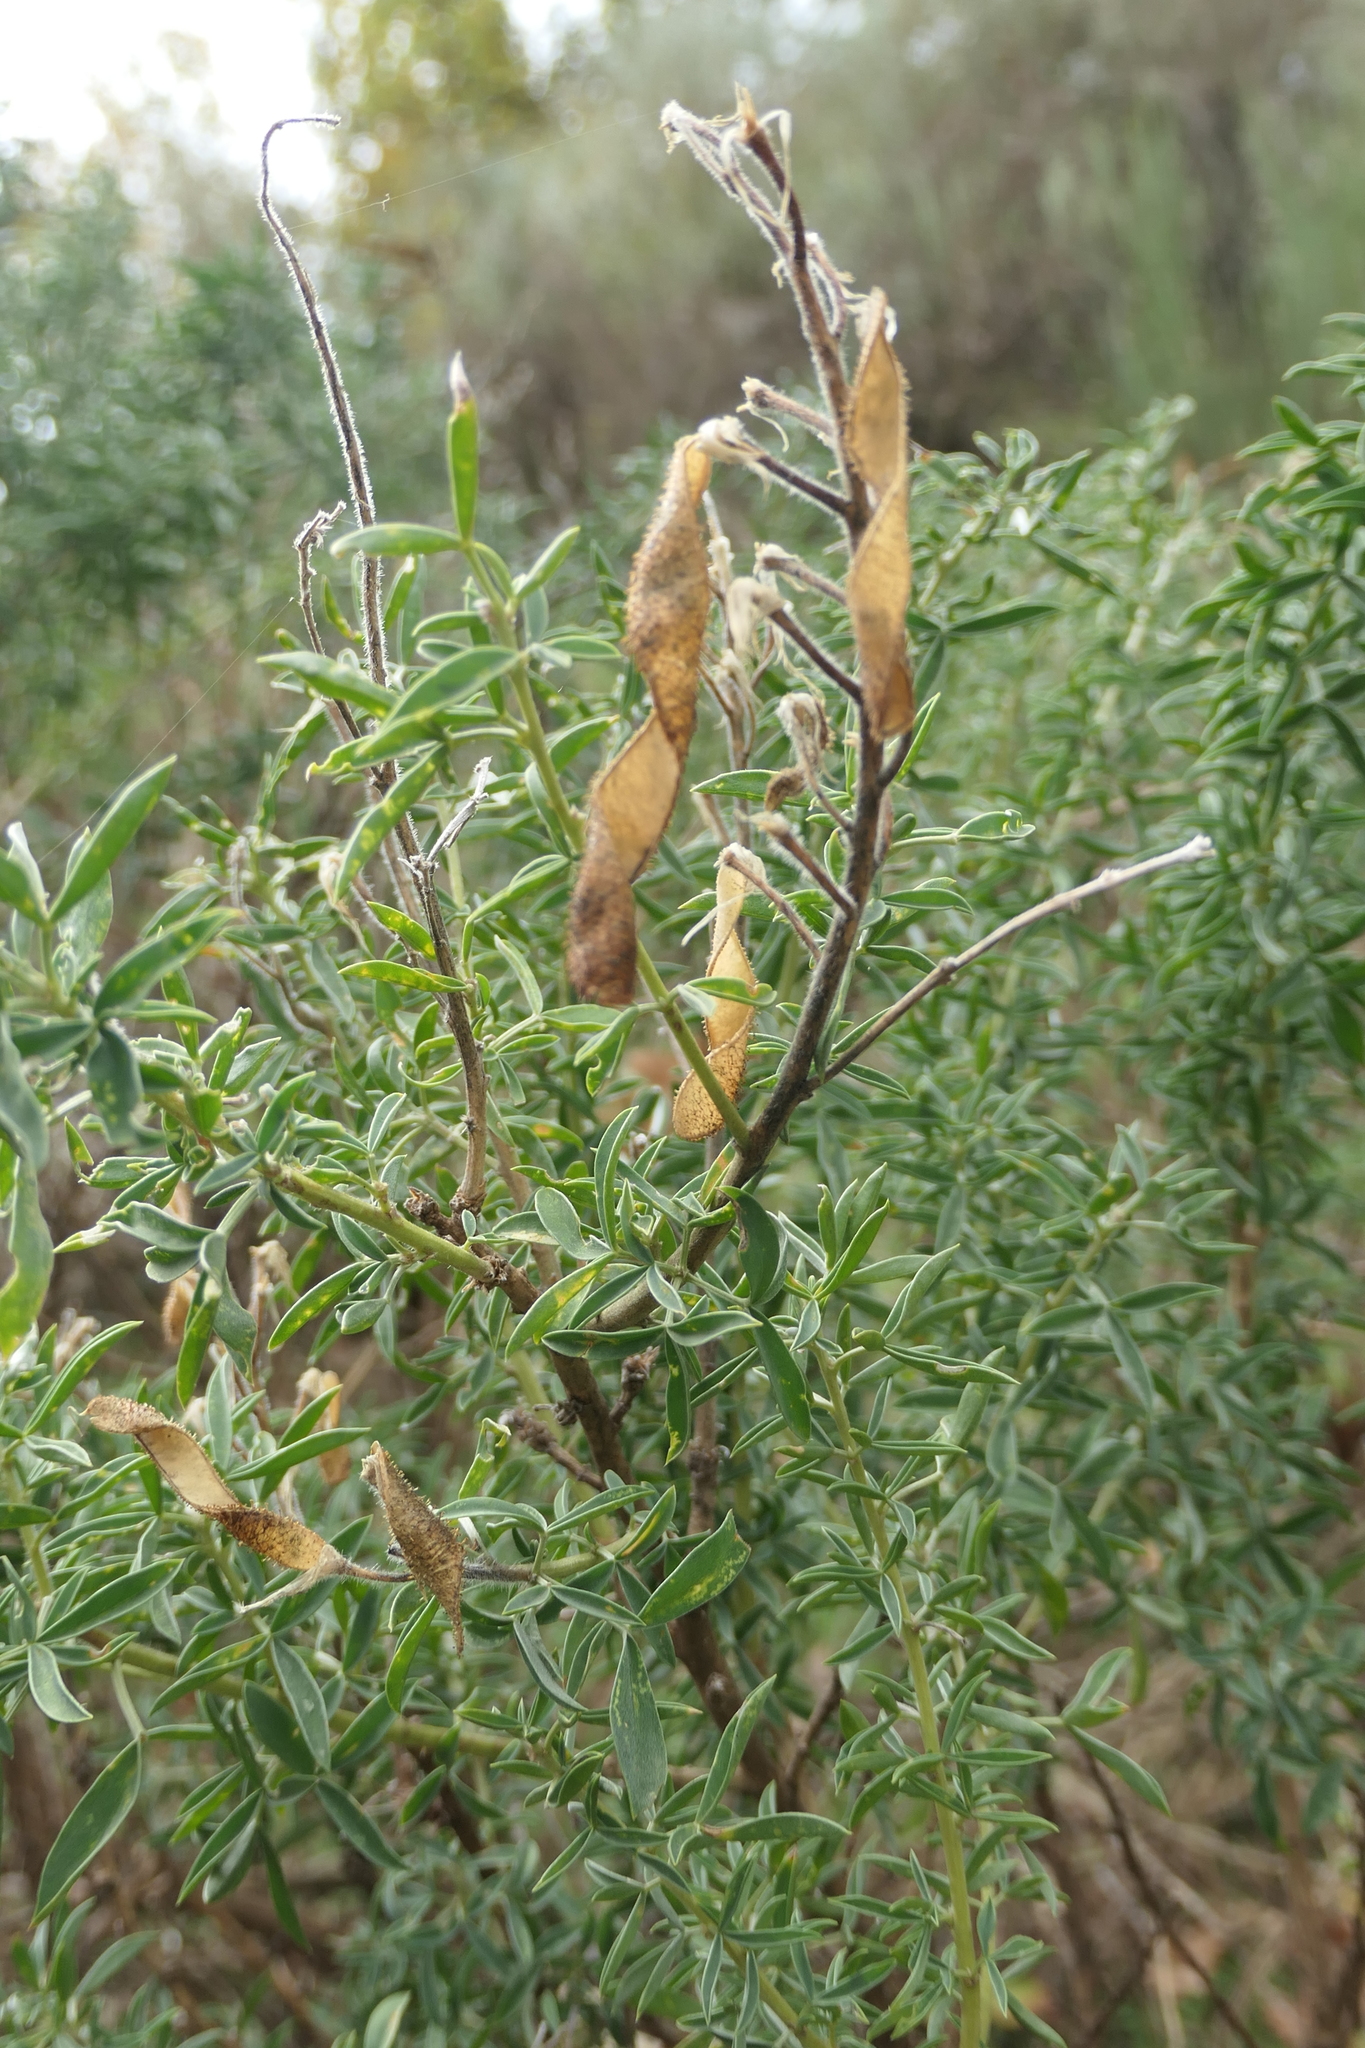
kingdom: Plantae
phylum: Tracheophyta
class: Magnoliopsida
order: Fabales
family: Fabaceae
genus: Adenocarpus
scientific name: Adenocarpus hispanicus
